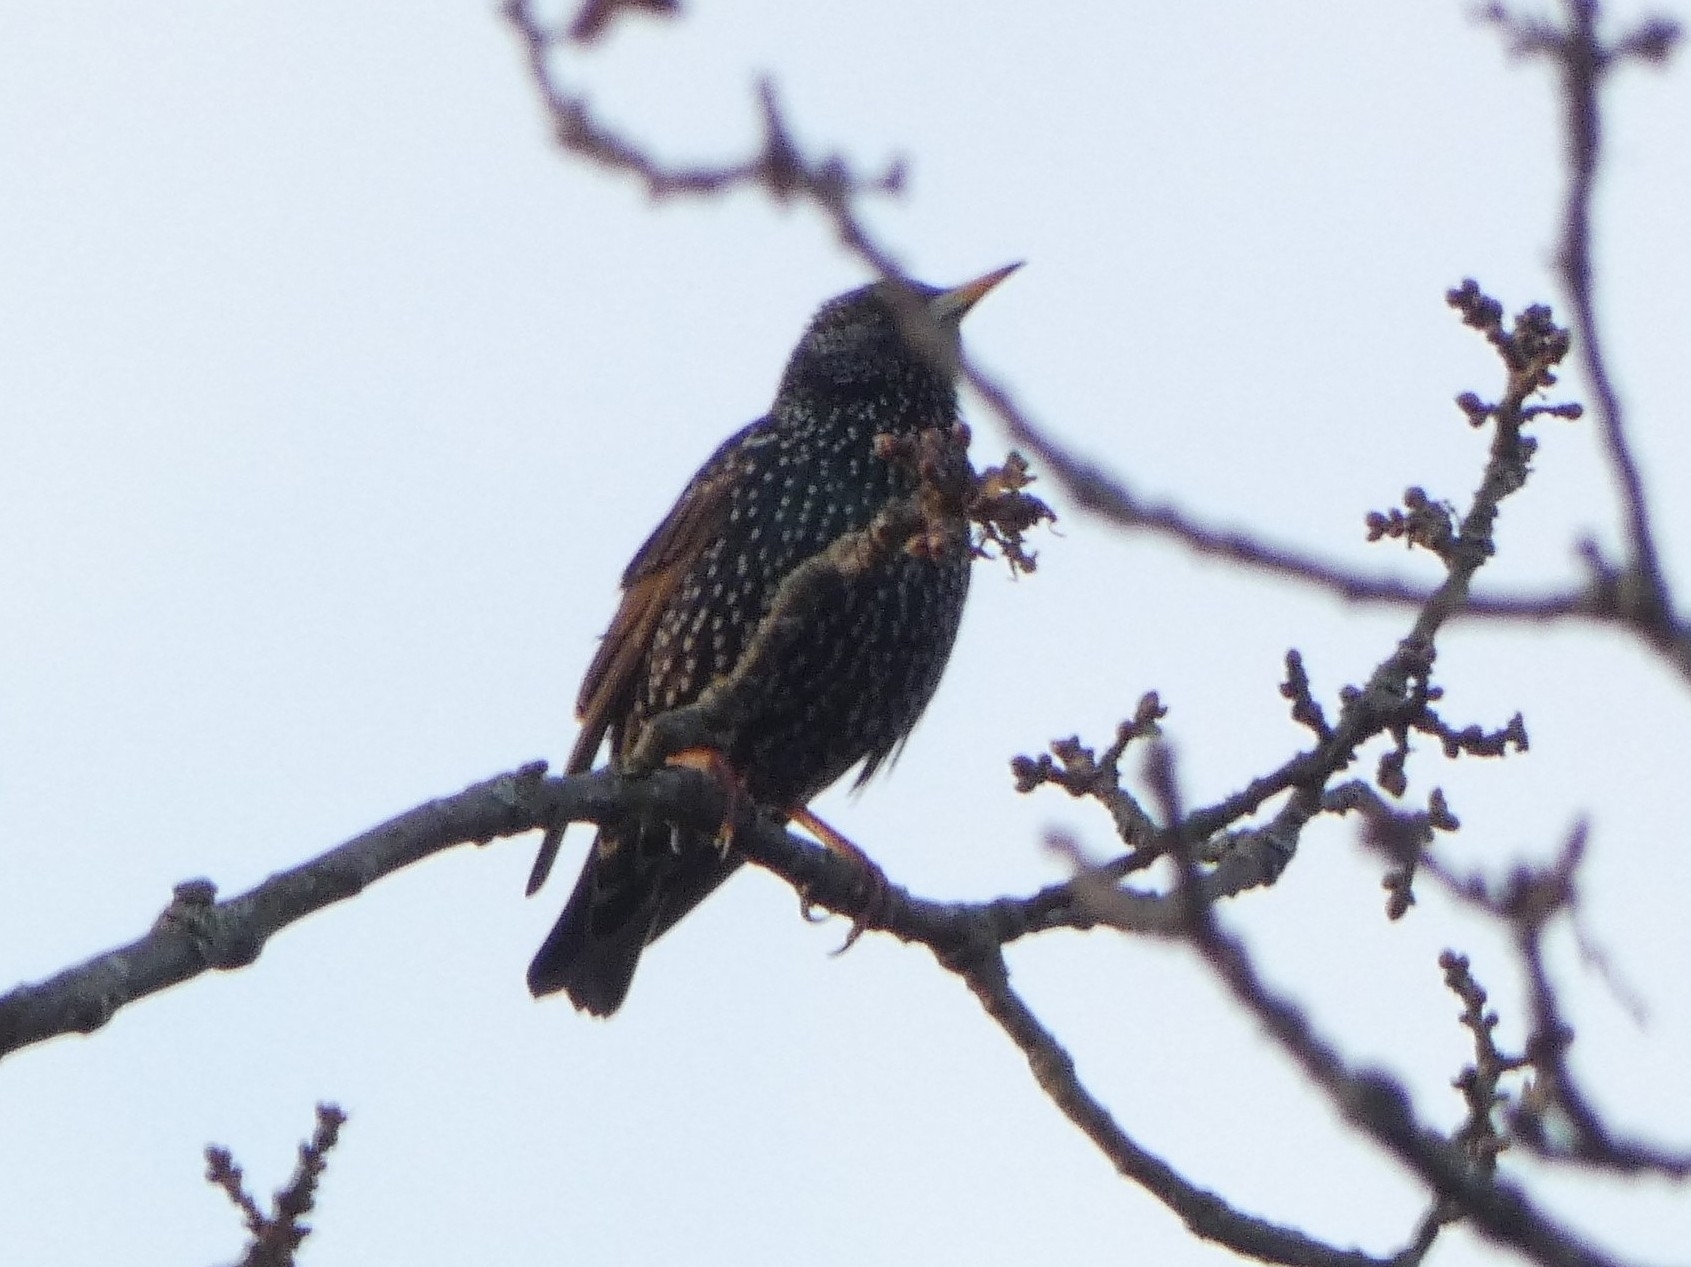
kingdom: Animalia
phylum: Chordata
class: Aves
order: Passeriformes
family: Sturnidae
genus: Sturnus
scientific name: Sturnus vulgaris
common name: Common starling
